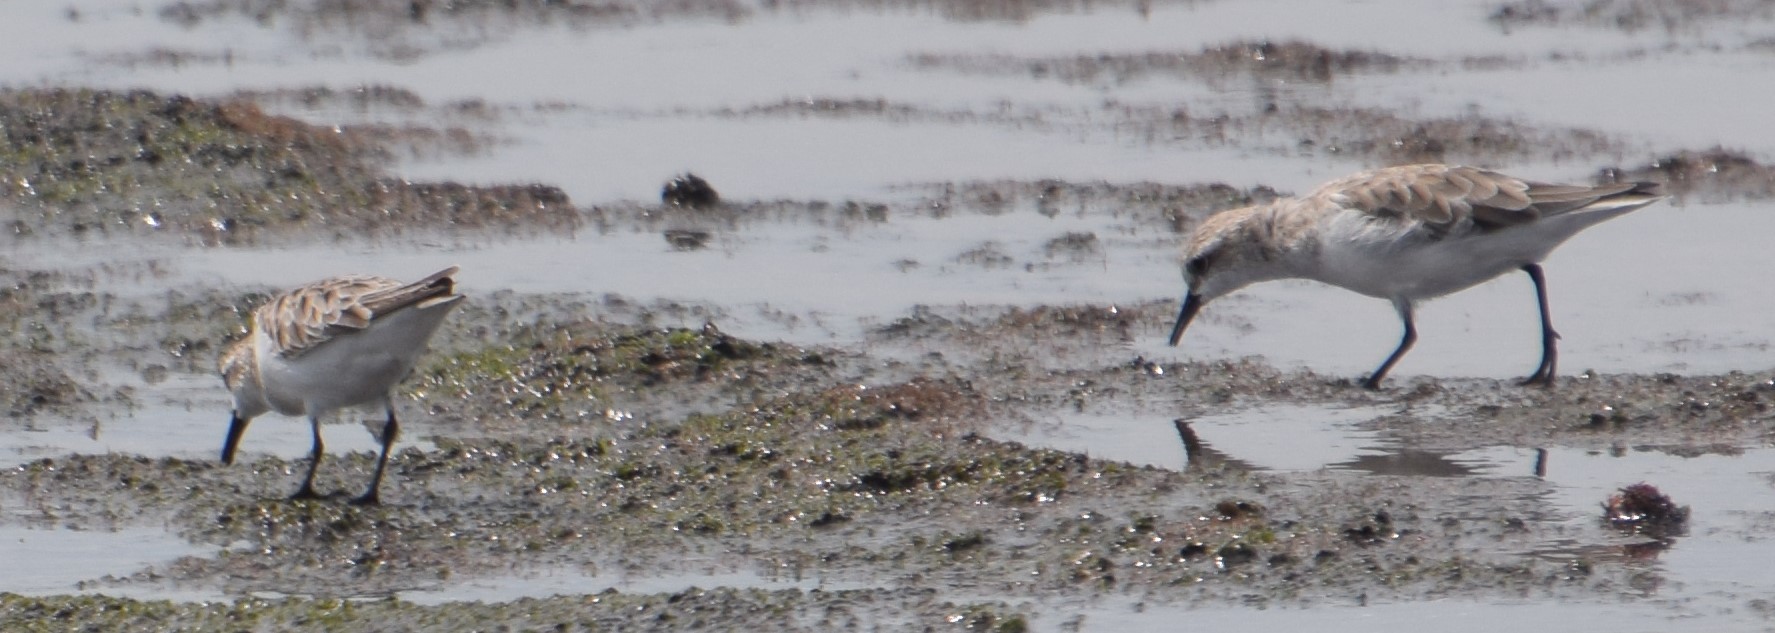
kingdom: Animalia
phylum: Chordata
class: Aves
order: Charadriiformes
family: Scolopacidae
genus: Calidris
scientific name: Calidris ruficollis
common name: Red-necked stint
